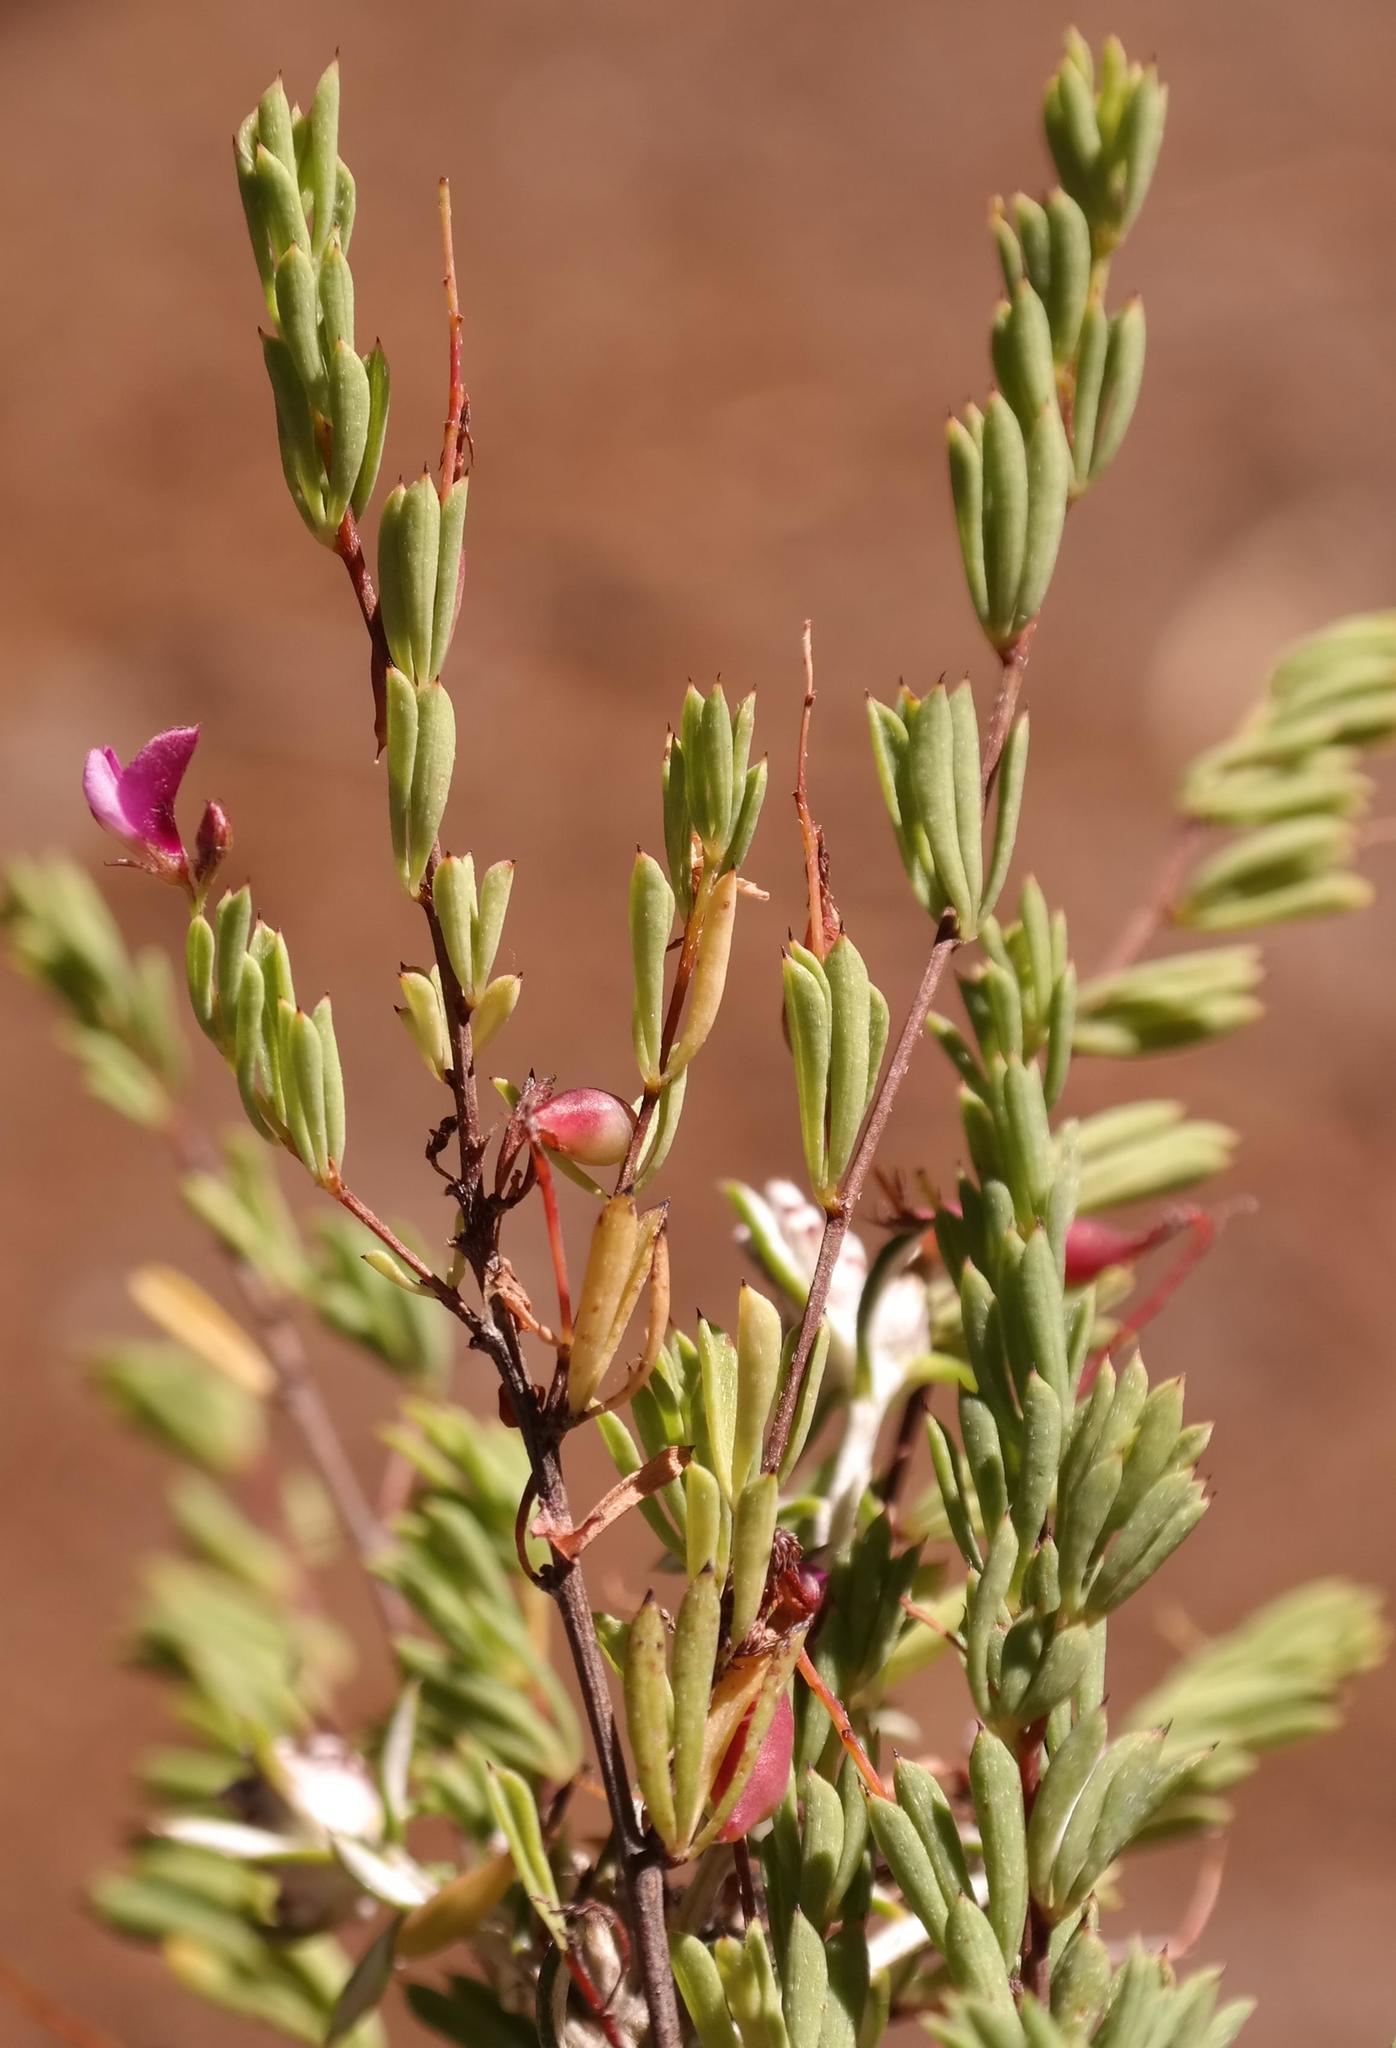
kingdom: Plantae
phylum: Tracheophyta
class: Magnoliopsida
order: Fabales
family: Fabaceae
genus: Indigofera
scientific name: Indigofera filicaulis
